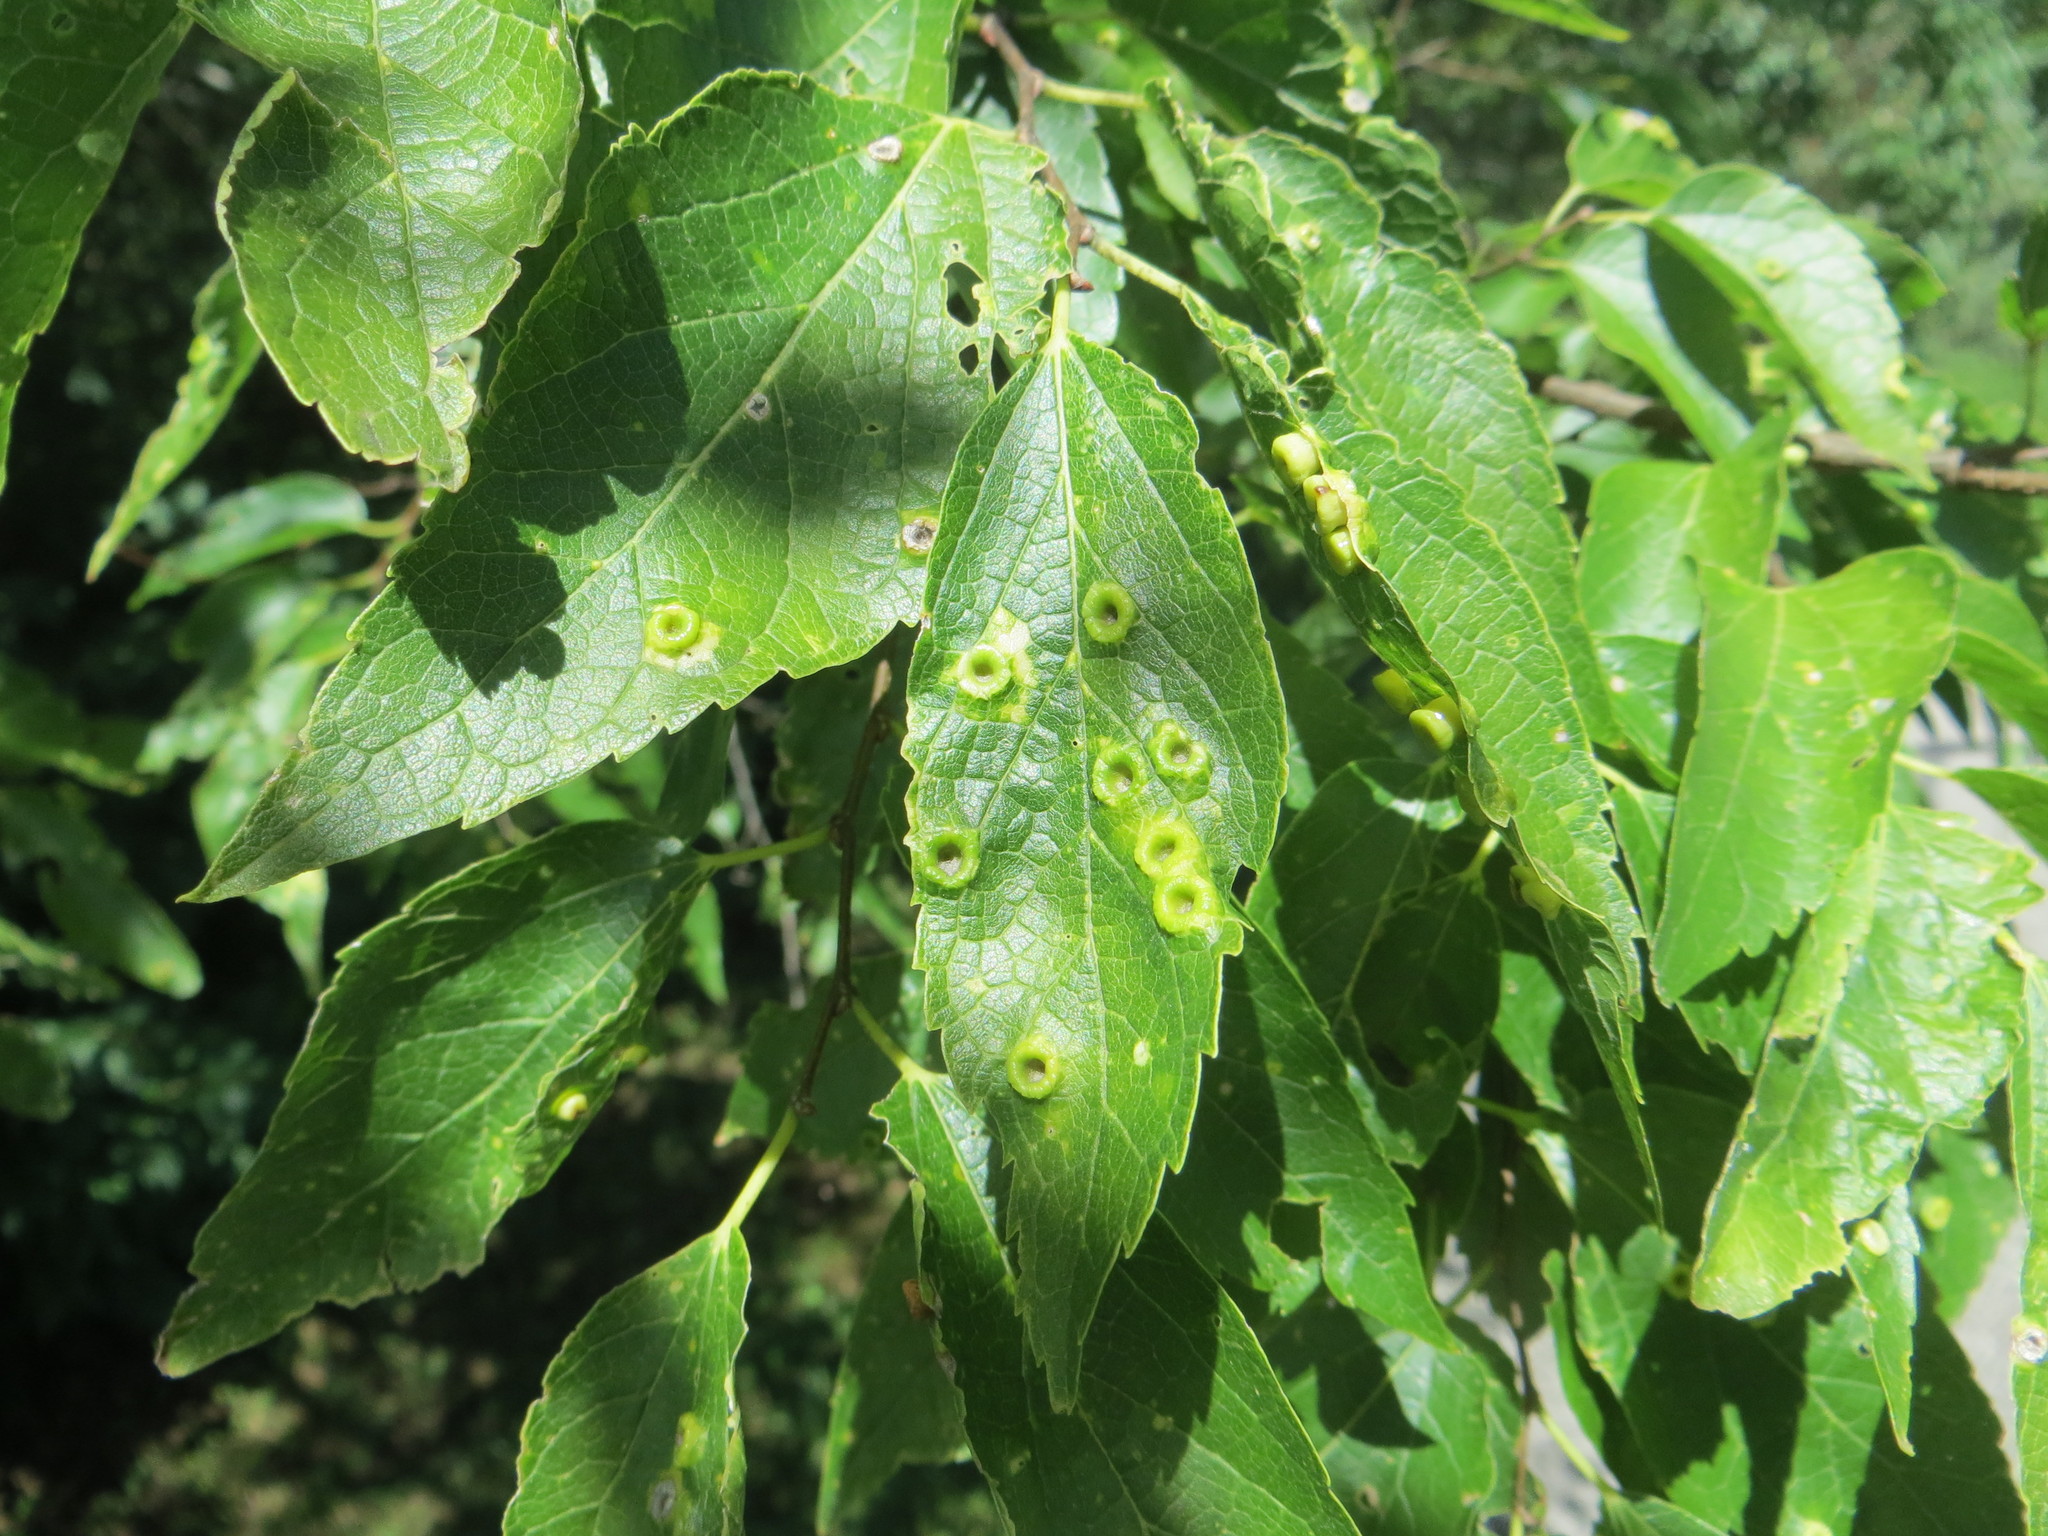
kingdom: Animalia
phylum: Arthropoda
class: Insecta
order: Hemiptera
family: Aphalaridae
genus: Pachypsylla
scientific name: Pachypsylla celtidismamma
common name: Hackberry nipplegall psyllid
